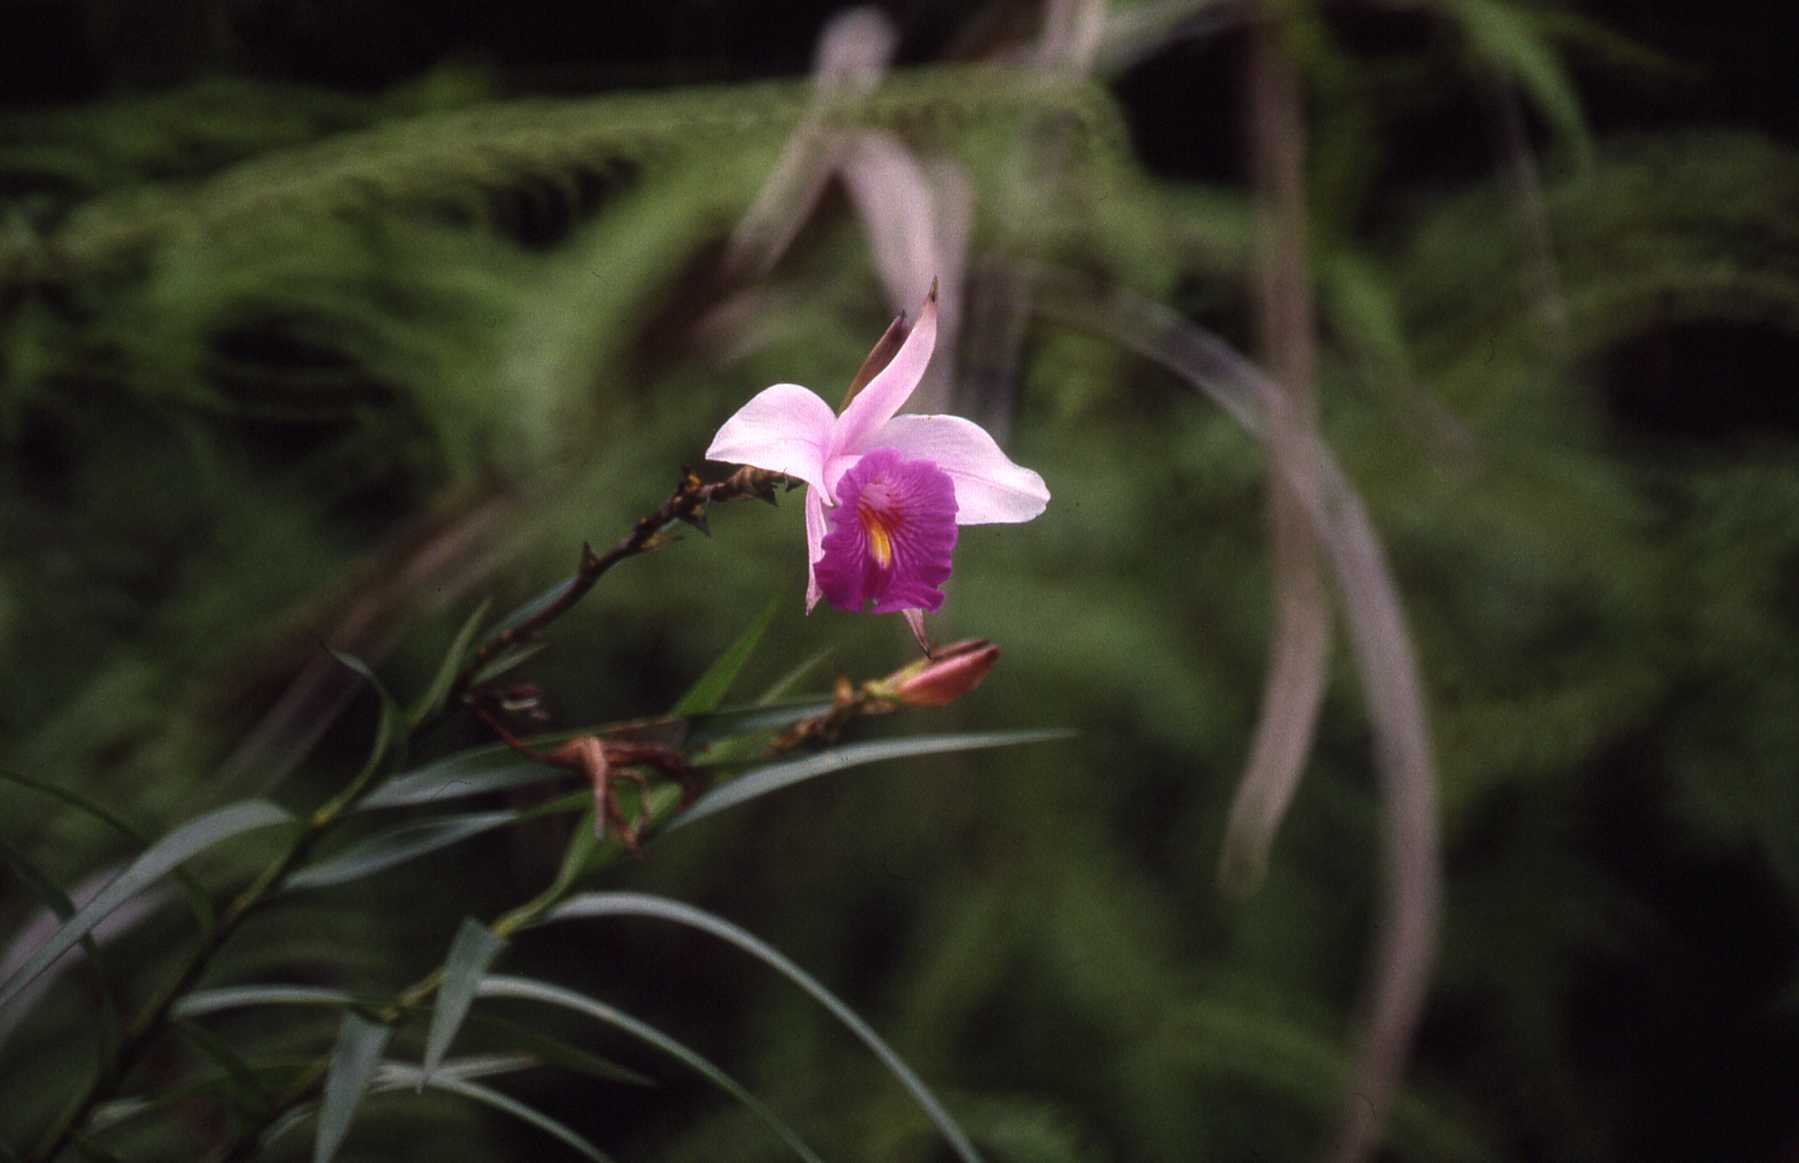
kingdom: Plantae
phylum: Tracheophyta
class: Liliopsida
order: Asparagales
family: Orchidaceae
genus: Arundina
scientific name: Arundina graminifolia
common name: Bamboo orchid
